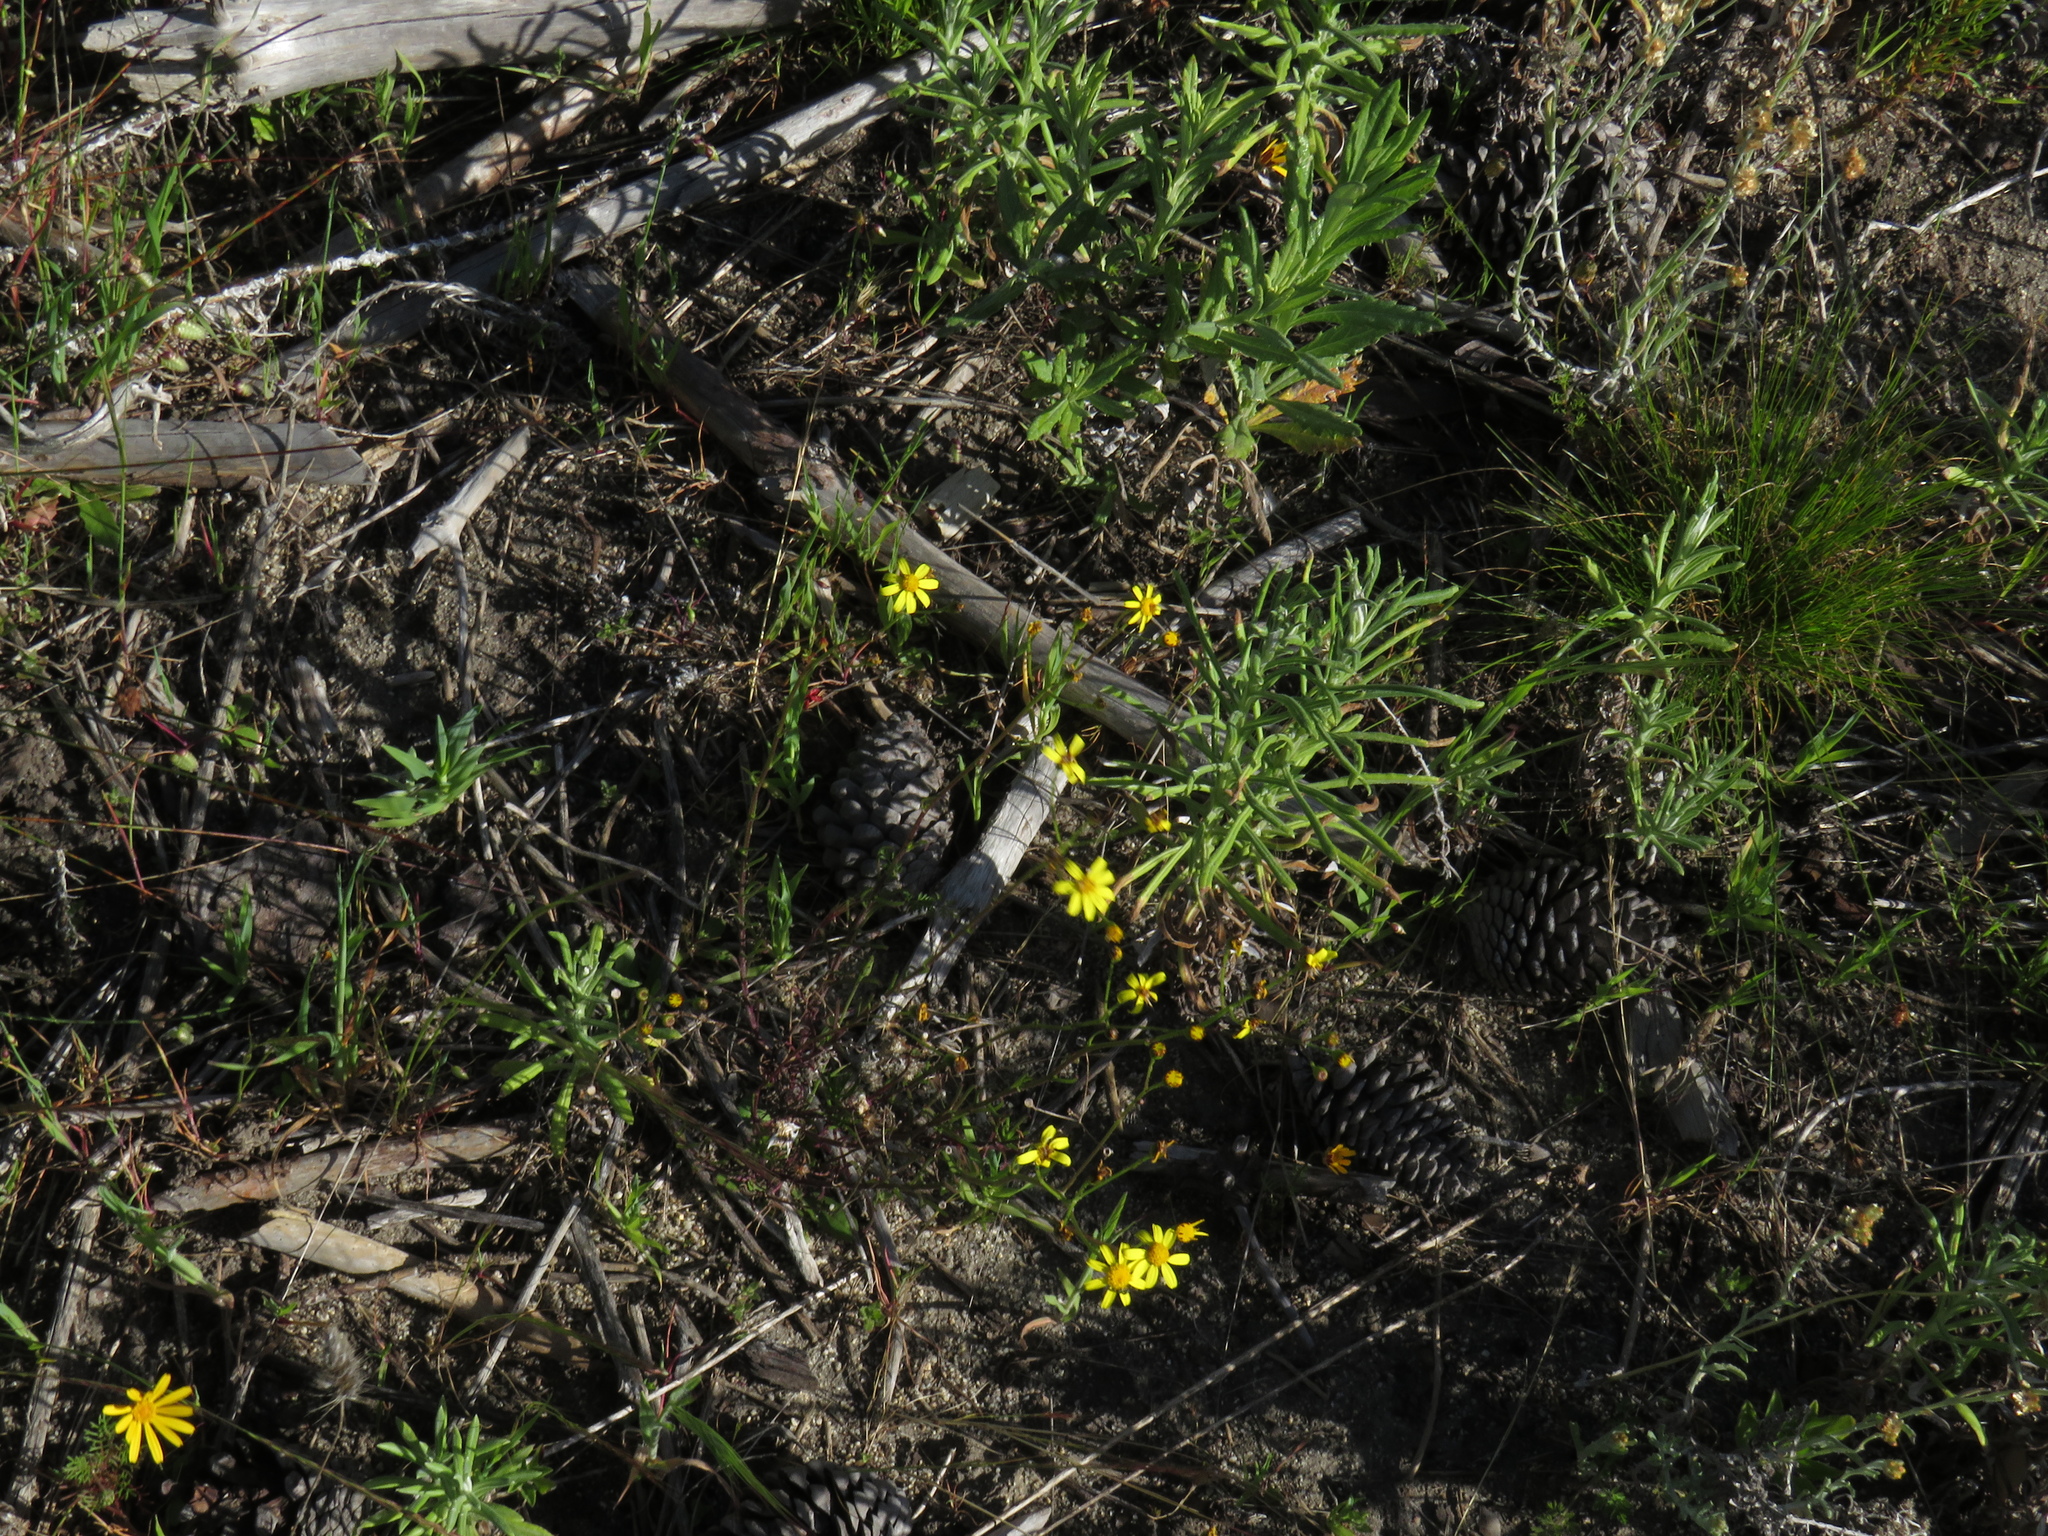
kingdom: Plantae
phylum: Tracheophyta
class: Magnoliopsida
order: Asterales
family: Asteraceae
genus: Senecio
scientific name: Senecio burchellii
